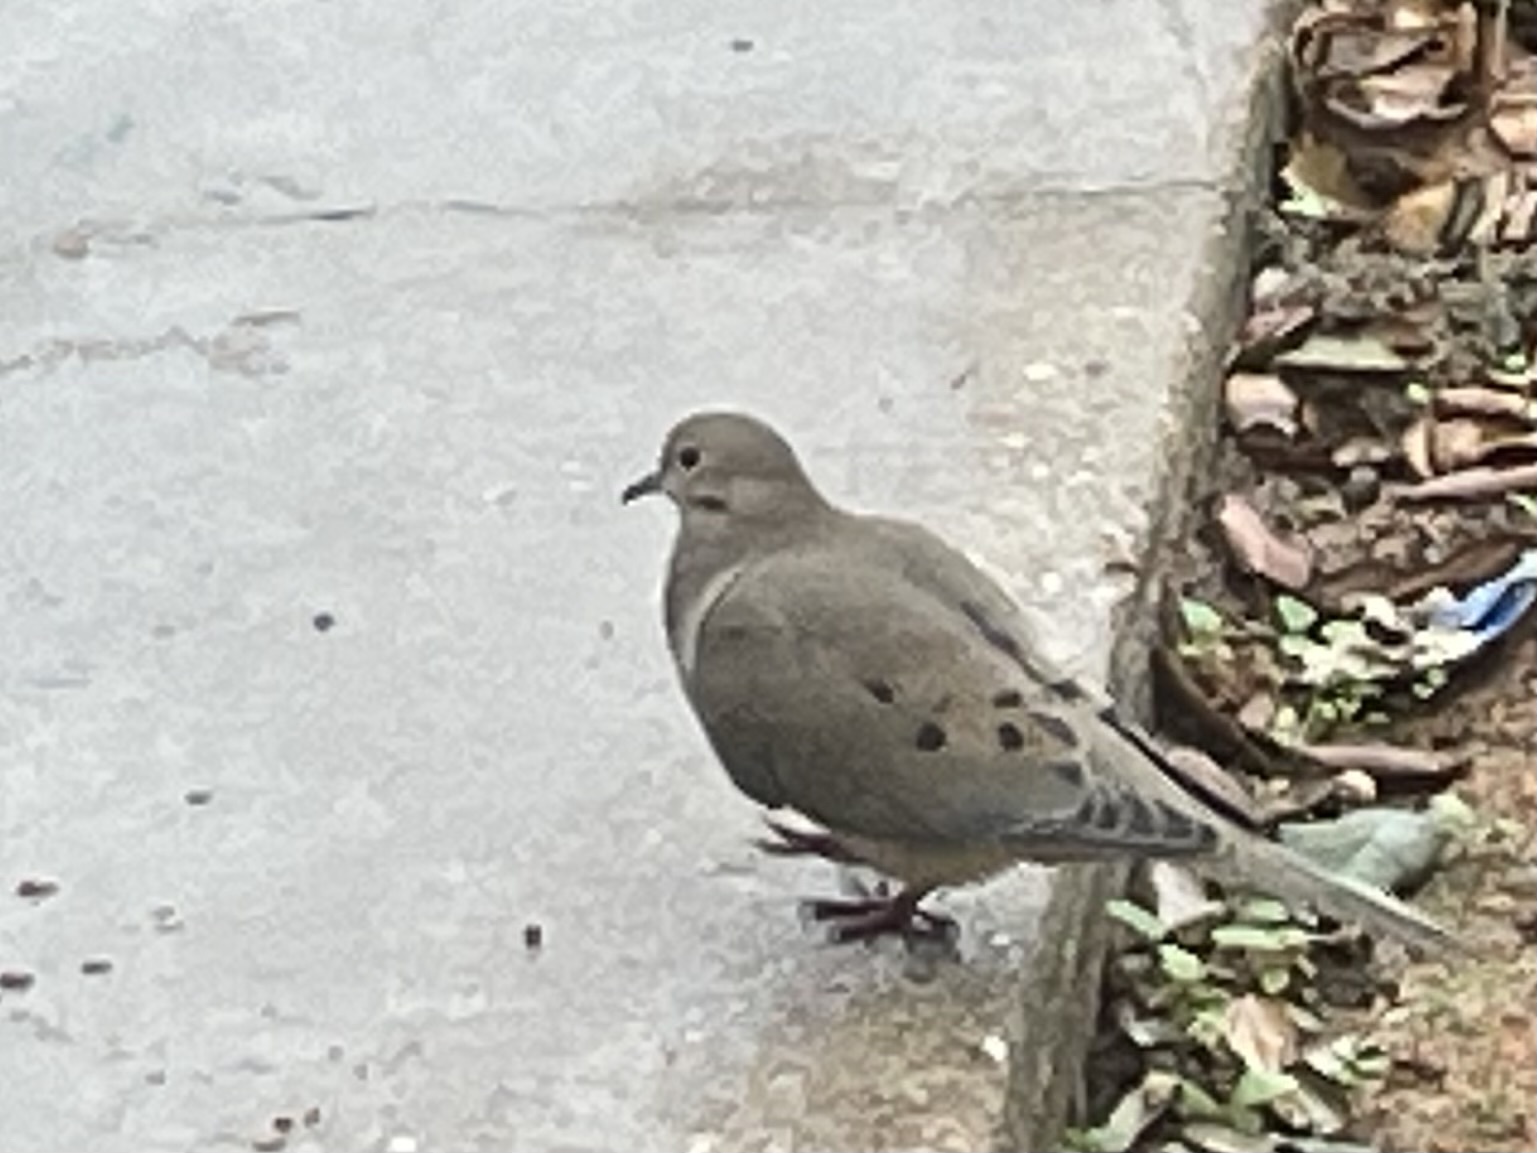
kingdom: Animalia
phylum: Chordata
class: Aves
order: Columbiformes
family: Columbidae
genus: Zenaida
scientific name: Zenaida macroura
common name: Mourning dove
